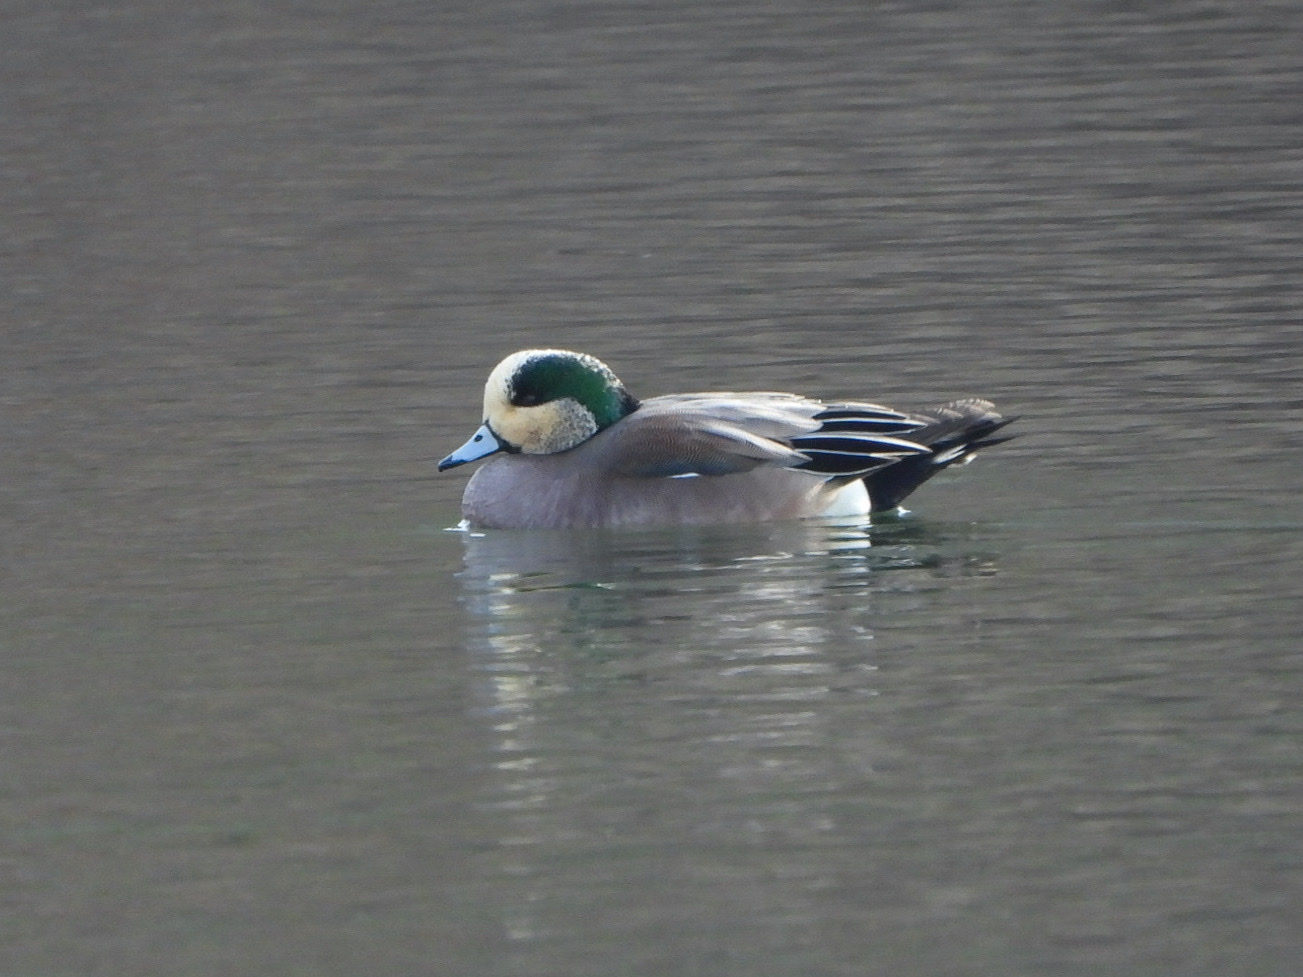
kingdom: Animalia
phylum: Chordata
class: Aves
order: Anseriformes
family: Anatidae
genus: Mareca
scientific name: Mareca americana
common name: American wigeon
